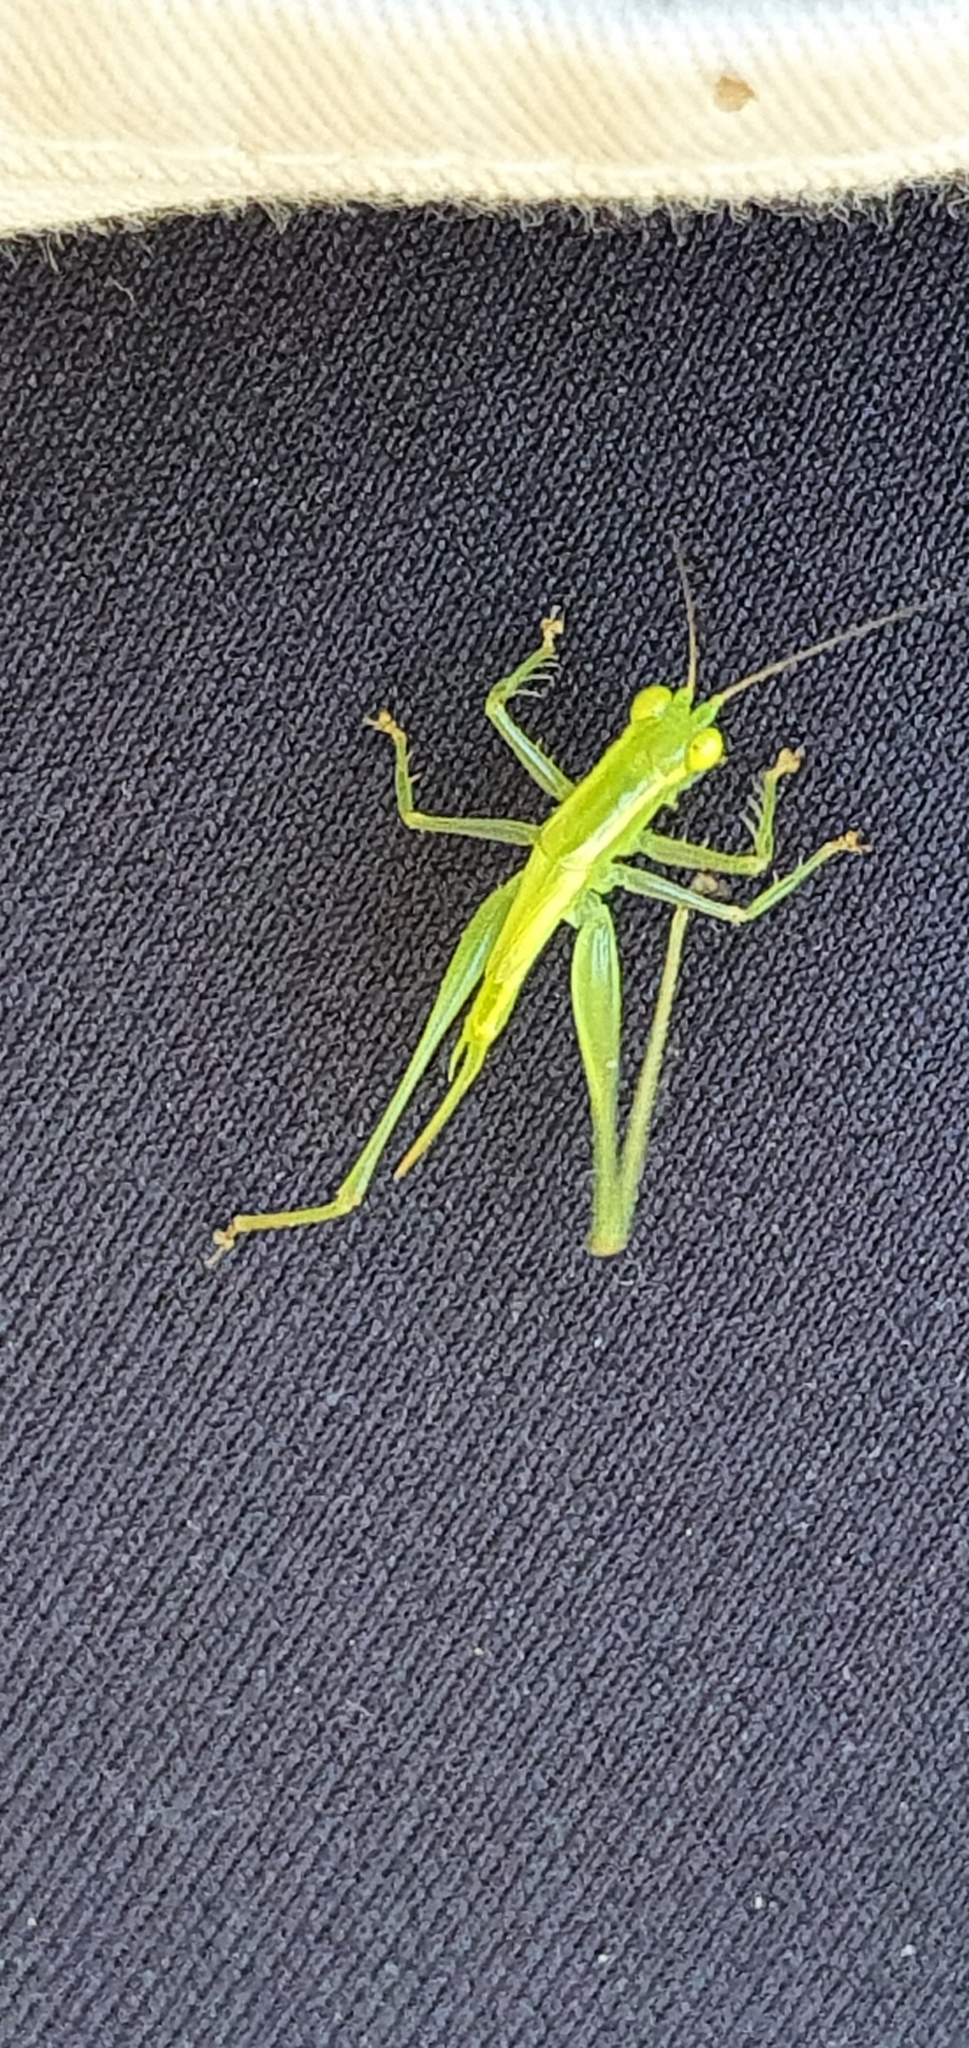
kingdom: Animalia
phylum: Arthropoda
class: Insecta
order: Orthoptera
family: Tettigoniidae
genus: Austrophlugis
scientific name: Austrophlugis debaari
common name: Debaar's swayer
